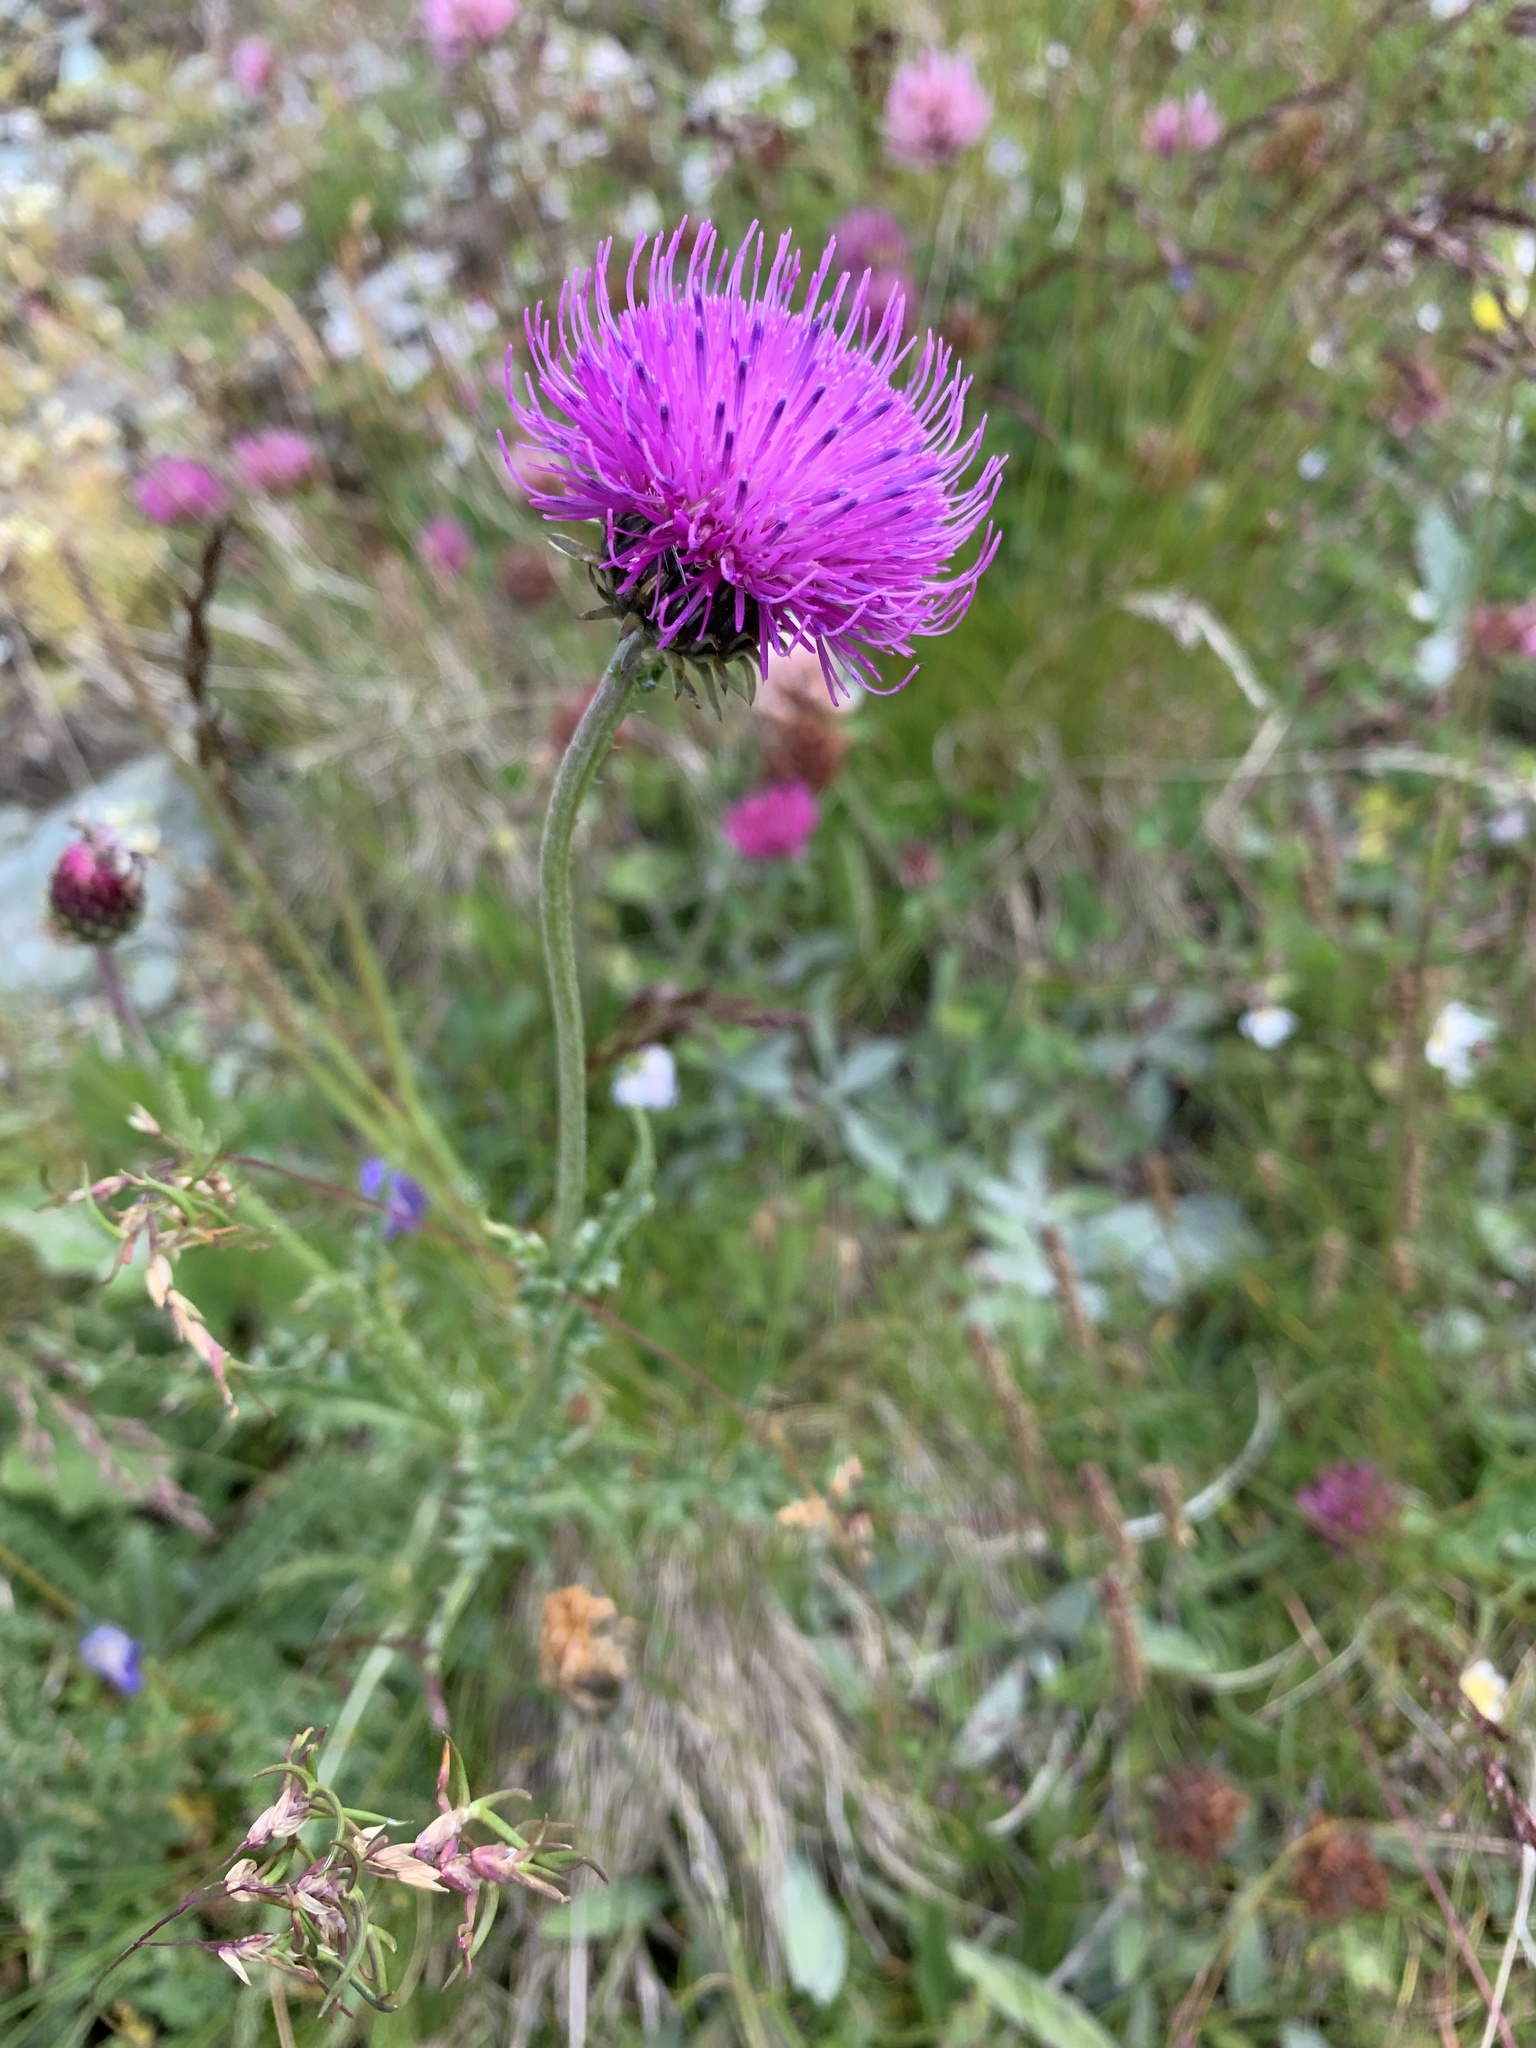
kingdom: Plantae
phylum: Tracheophyta
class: Magnoliopsida
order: Asterales
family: Asteraceae
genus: Carduus
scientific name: Carduus defloratus
